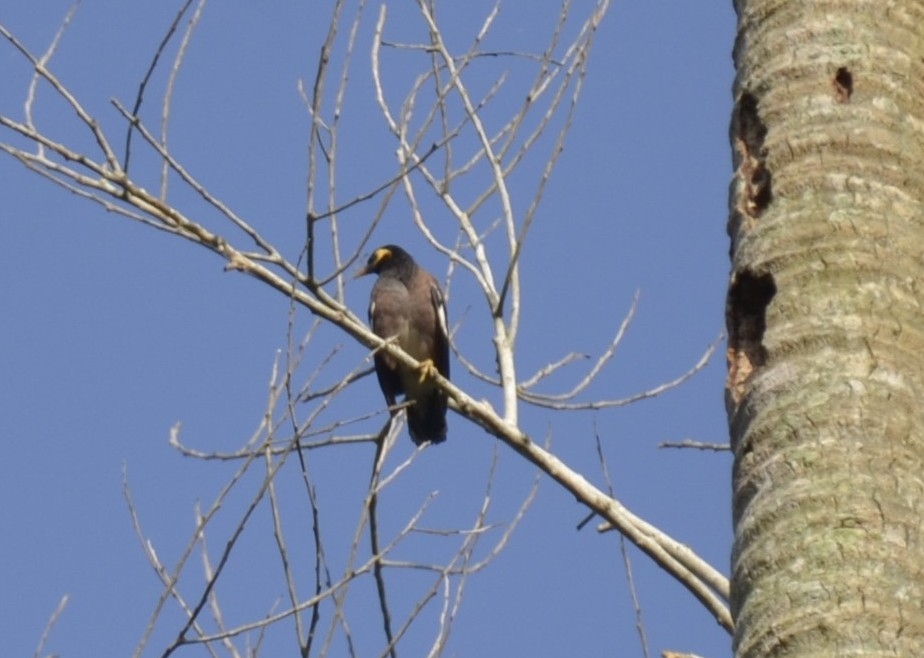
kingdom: Animalia
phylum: Chordata
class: Aves
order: Passeriformes
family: Sturnidae
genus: Acridotheres
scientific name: Acridotheres tristis
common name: Common myna
